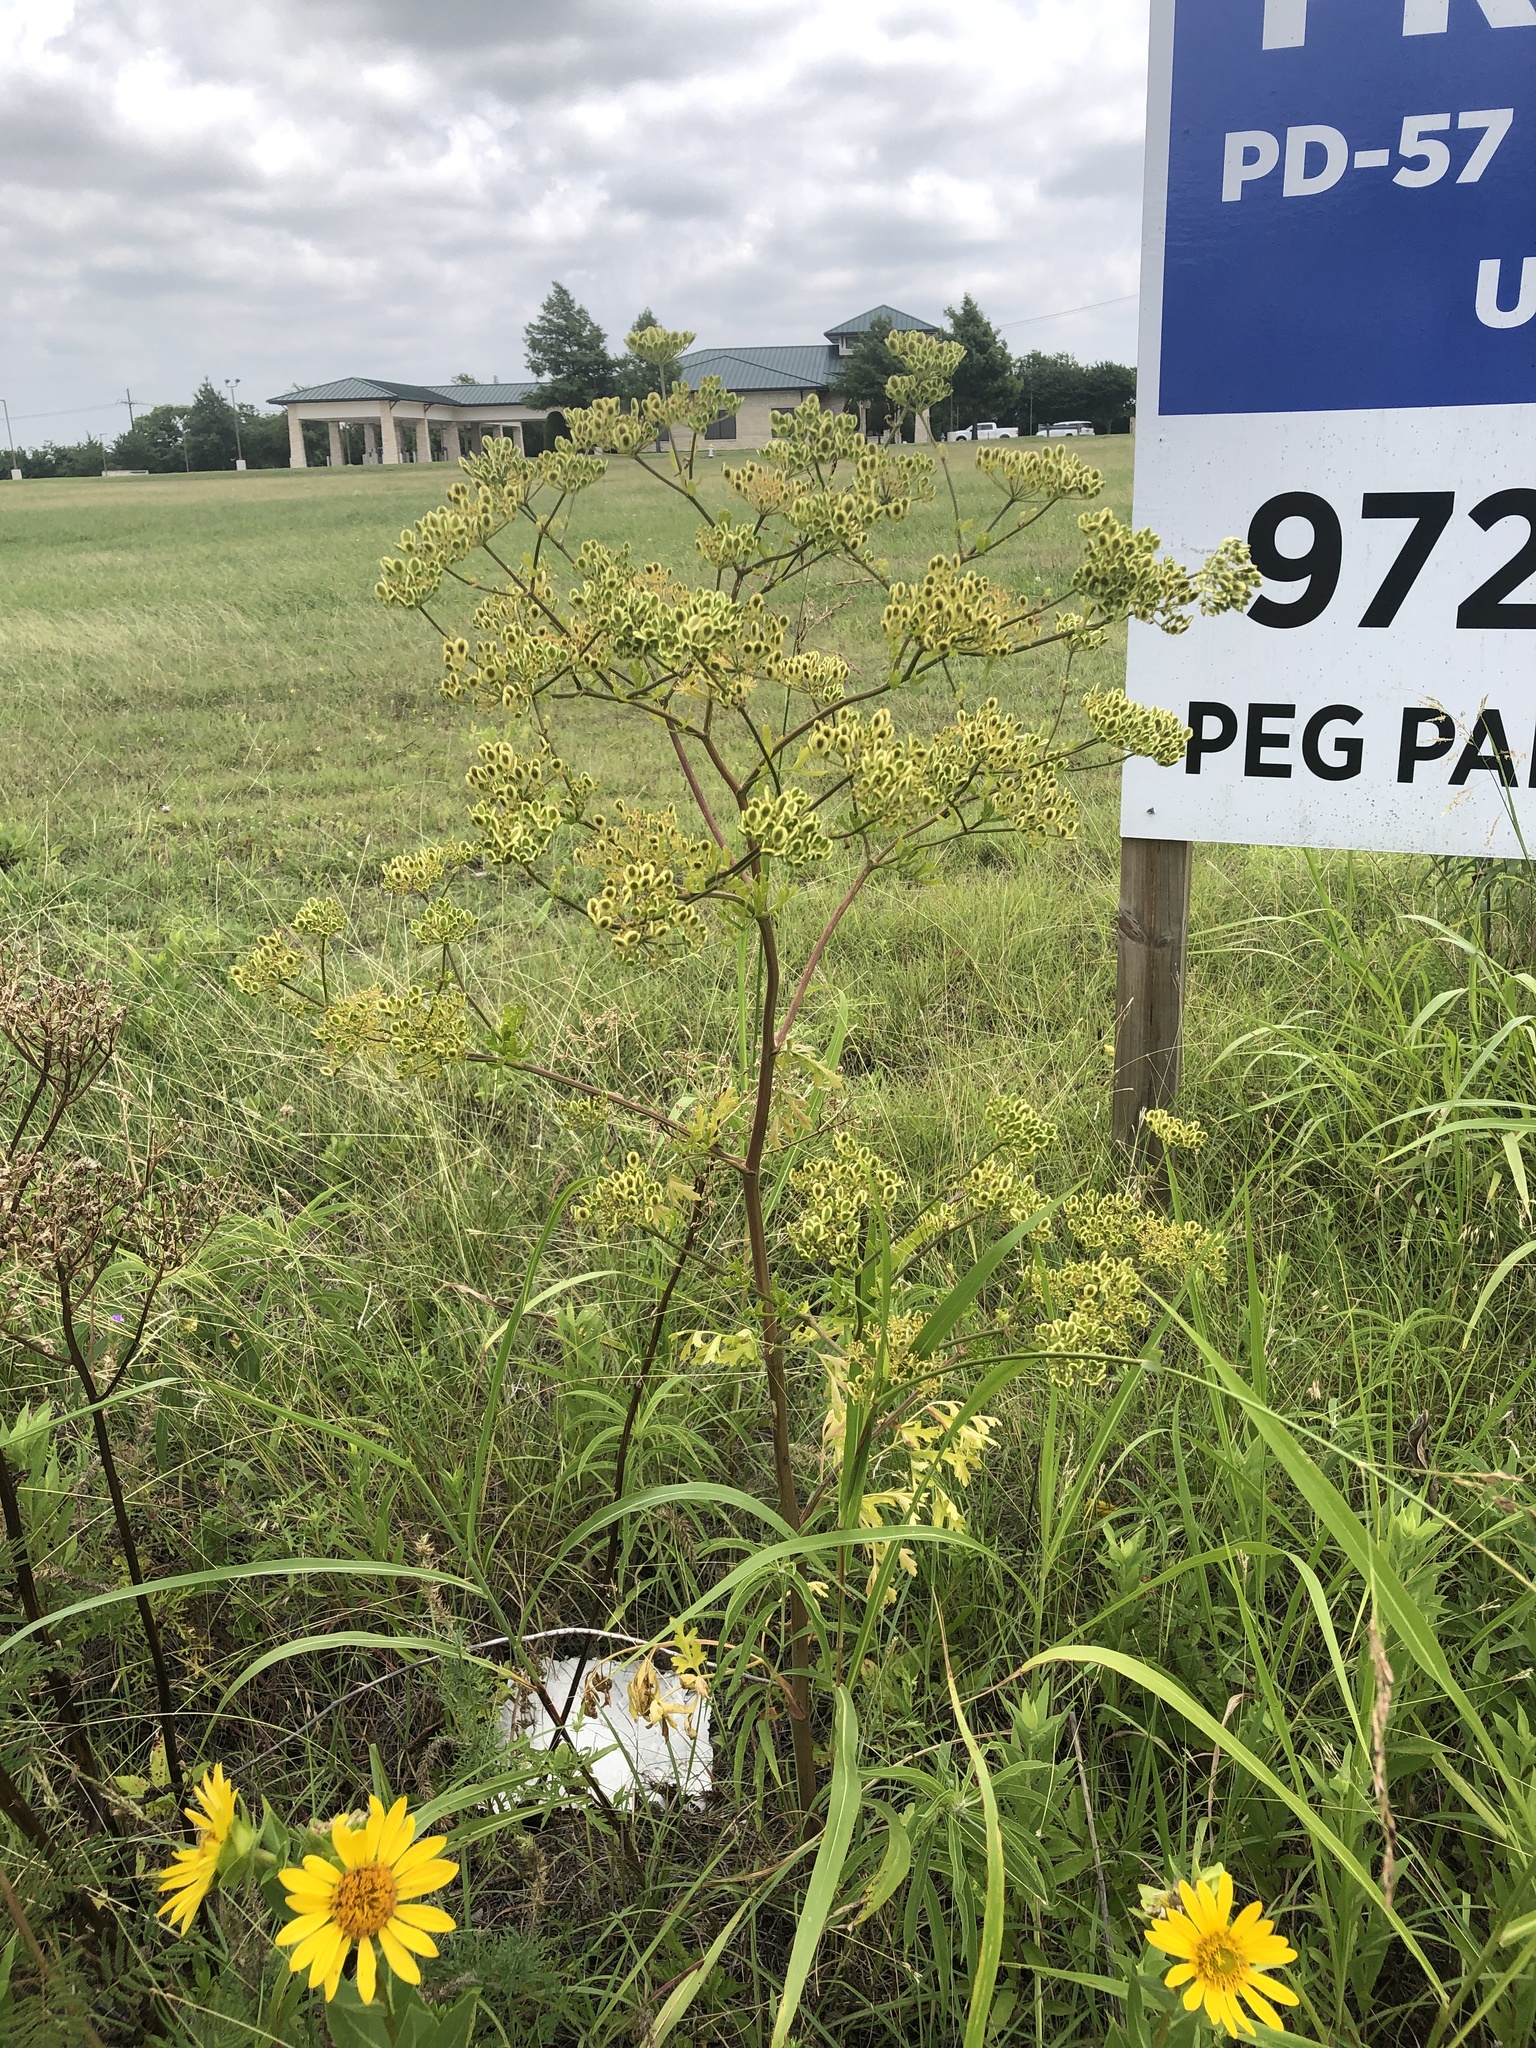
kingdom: Plantae
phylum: Tracheophyta
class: Magnoliopsida
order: Apiales
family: Apiaceae
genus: Polytaenia
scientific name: Polytaenia texana
